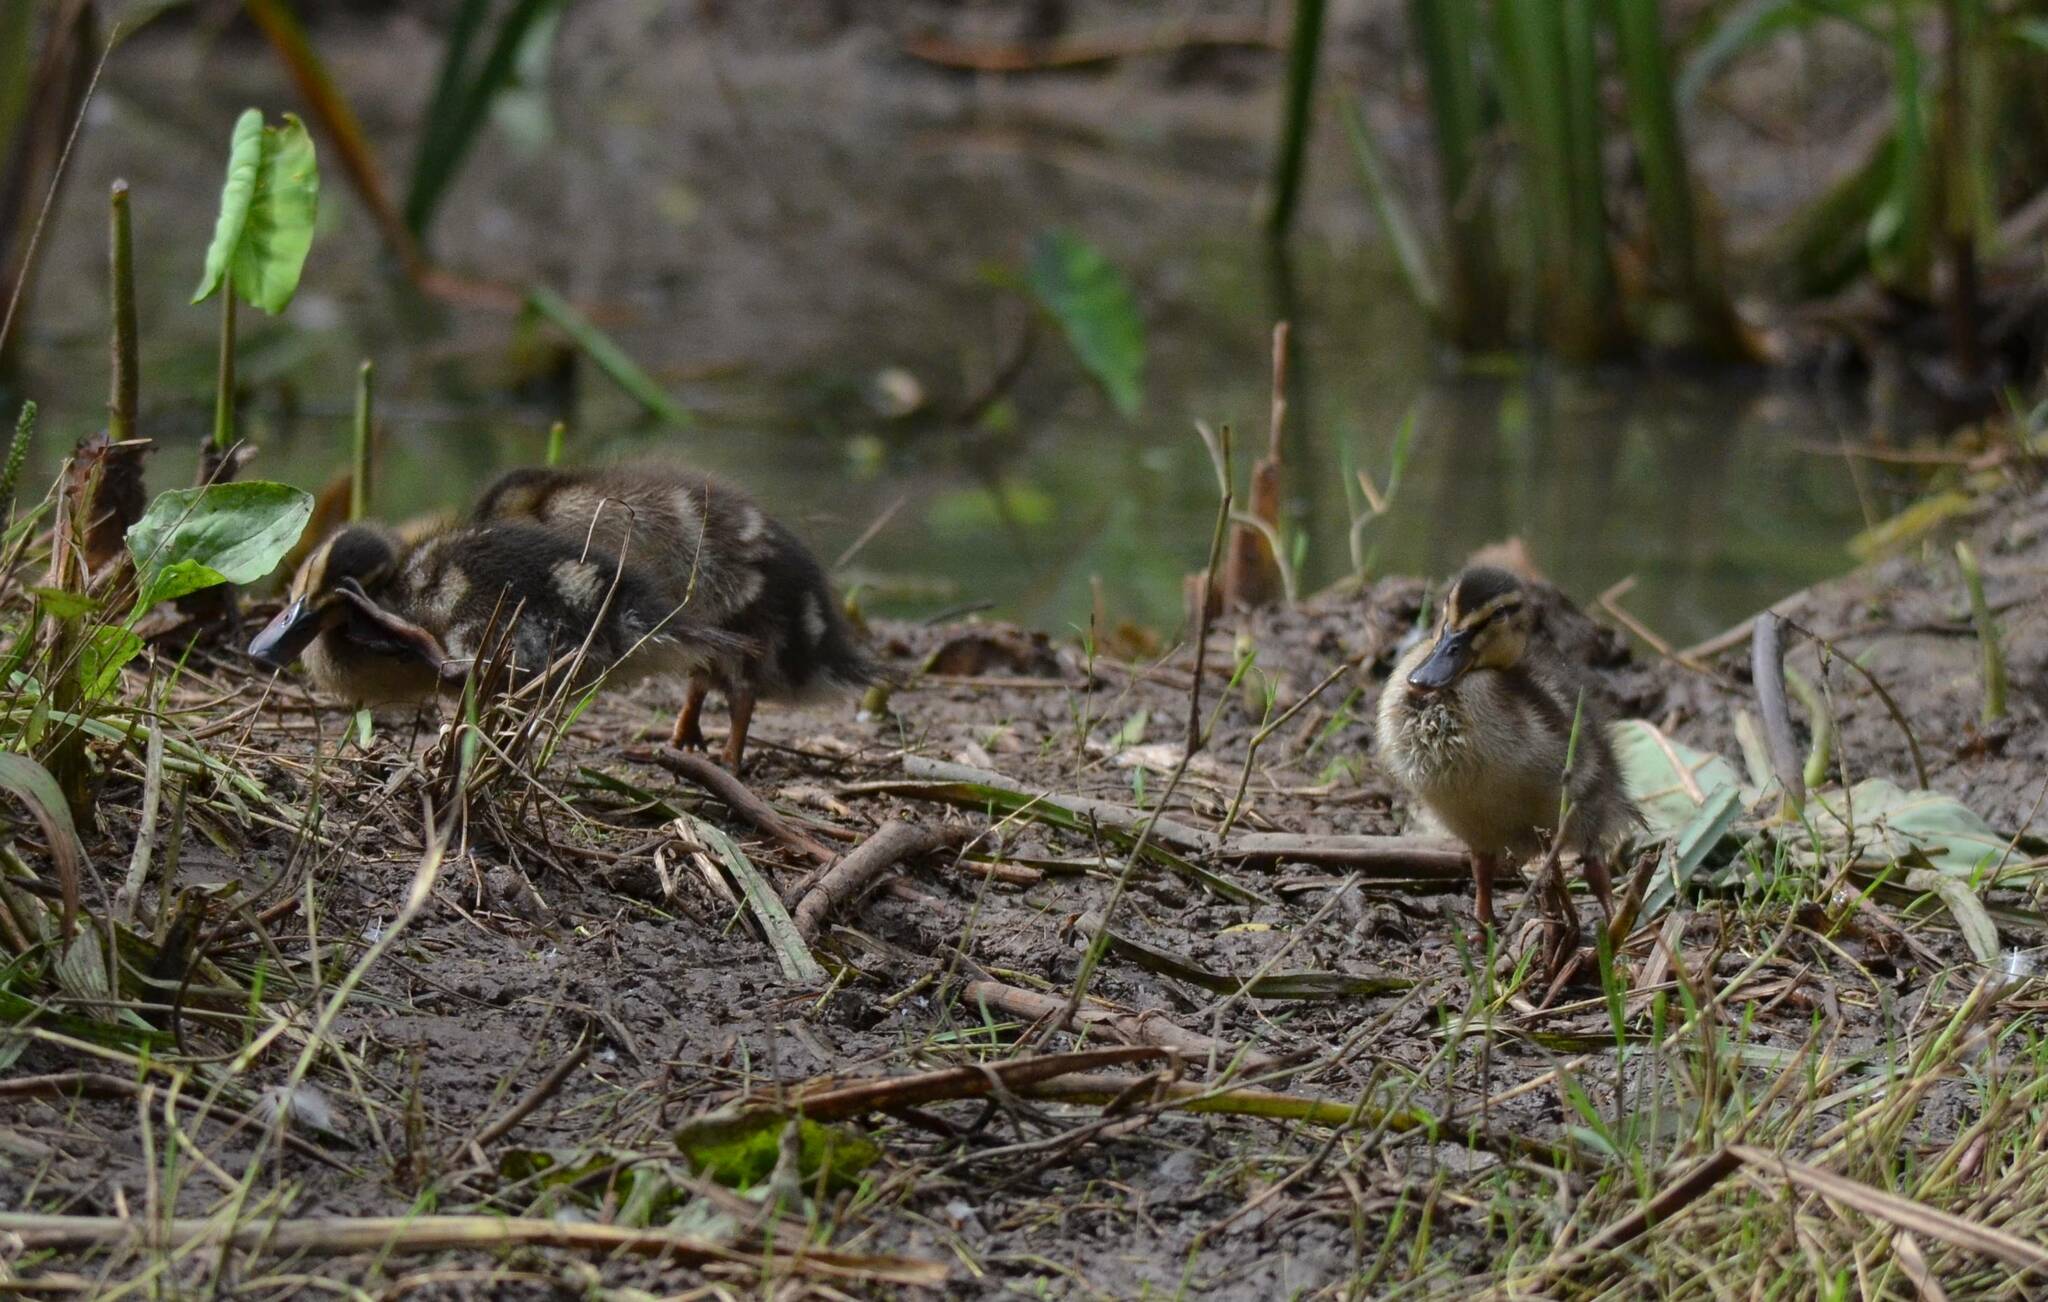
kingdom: Animalia
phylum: Chordata
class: Aves
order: Anseriformes
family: Anatidae
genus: Anas
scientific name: Anas platyrhynchos
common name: Mallard
